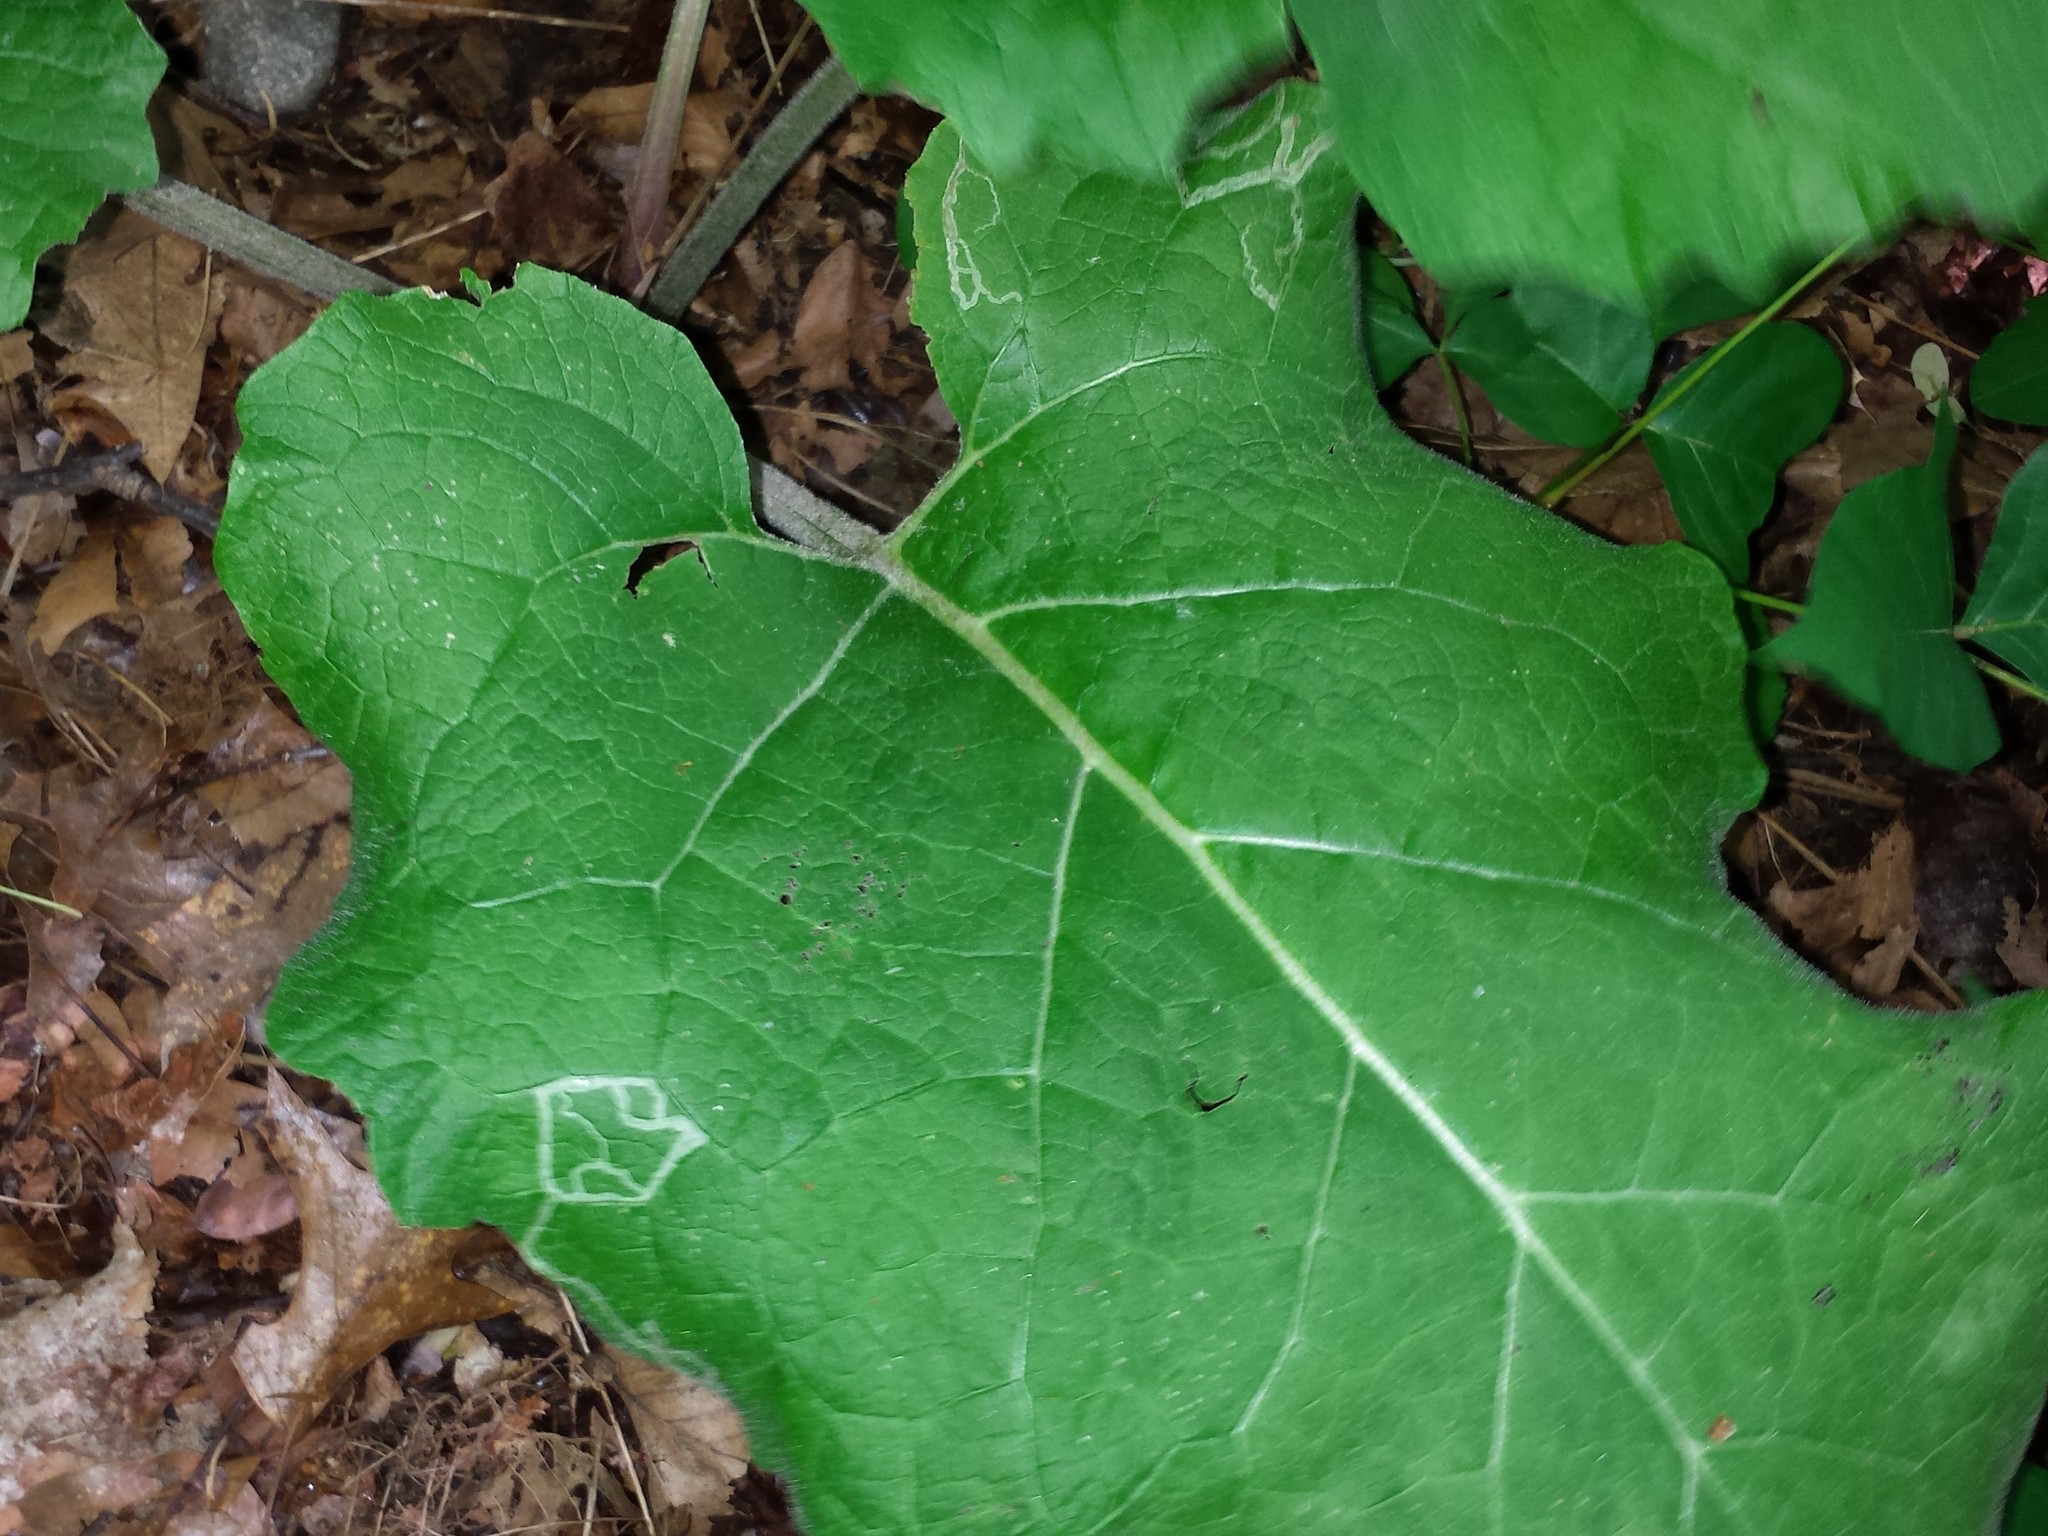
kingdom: Animalia
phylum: Arthropoda
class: Insecta
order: Diptera
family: Agromyzidae
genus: Liriomyza
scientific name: Liriomyza arctii
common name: Burdock leafminer
